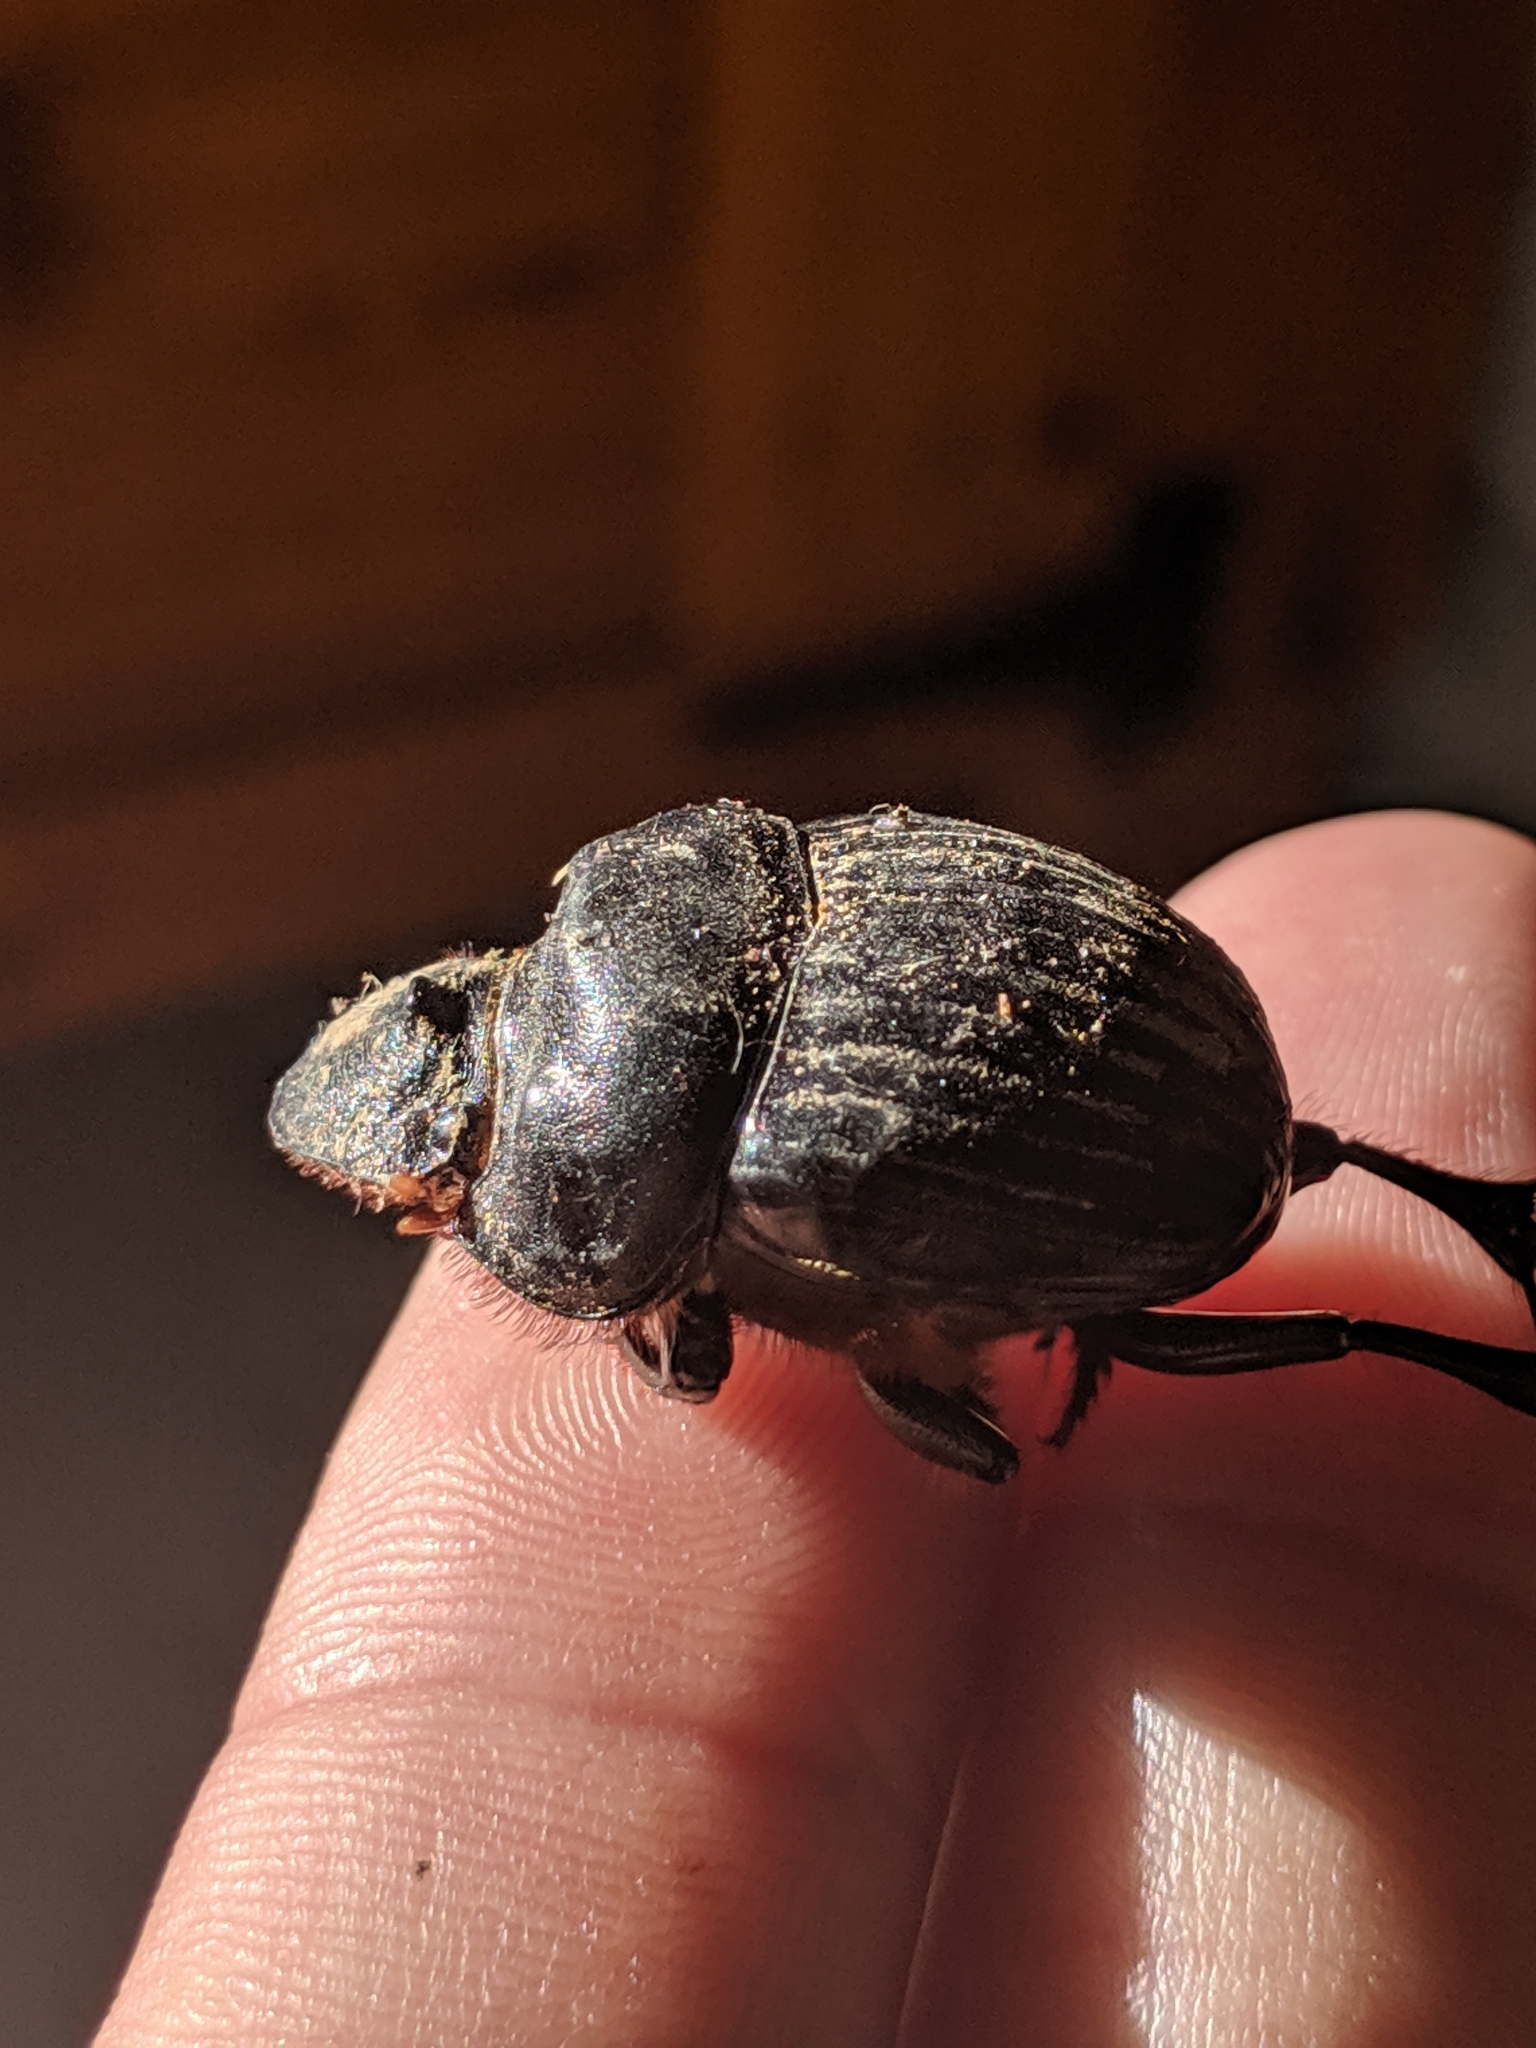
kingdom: Animalia
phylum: Arthropoda
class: Insecta
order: Coleoptera
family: Scarabaeidae
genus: Dichotomius
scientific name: Dichotomius carolinus
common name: Carolina copris
